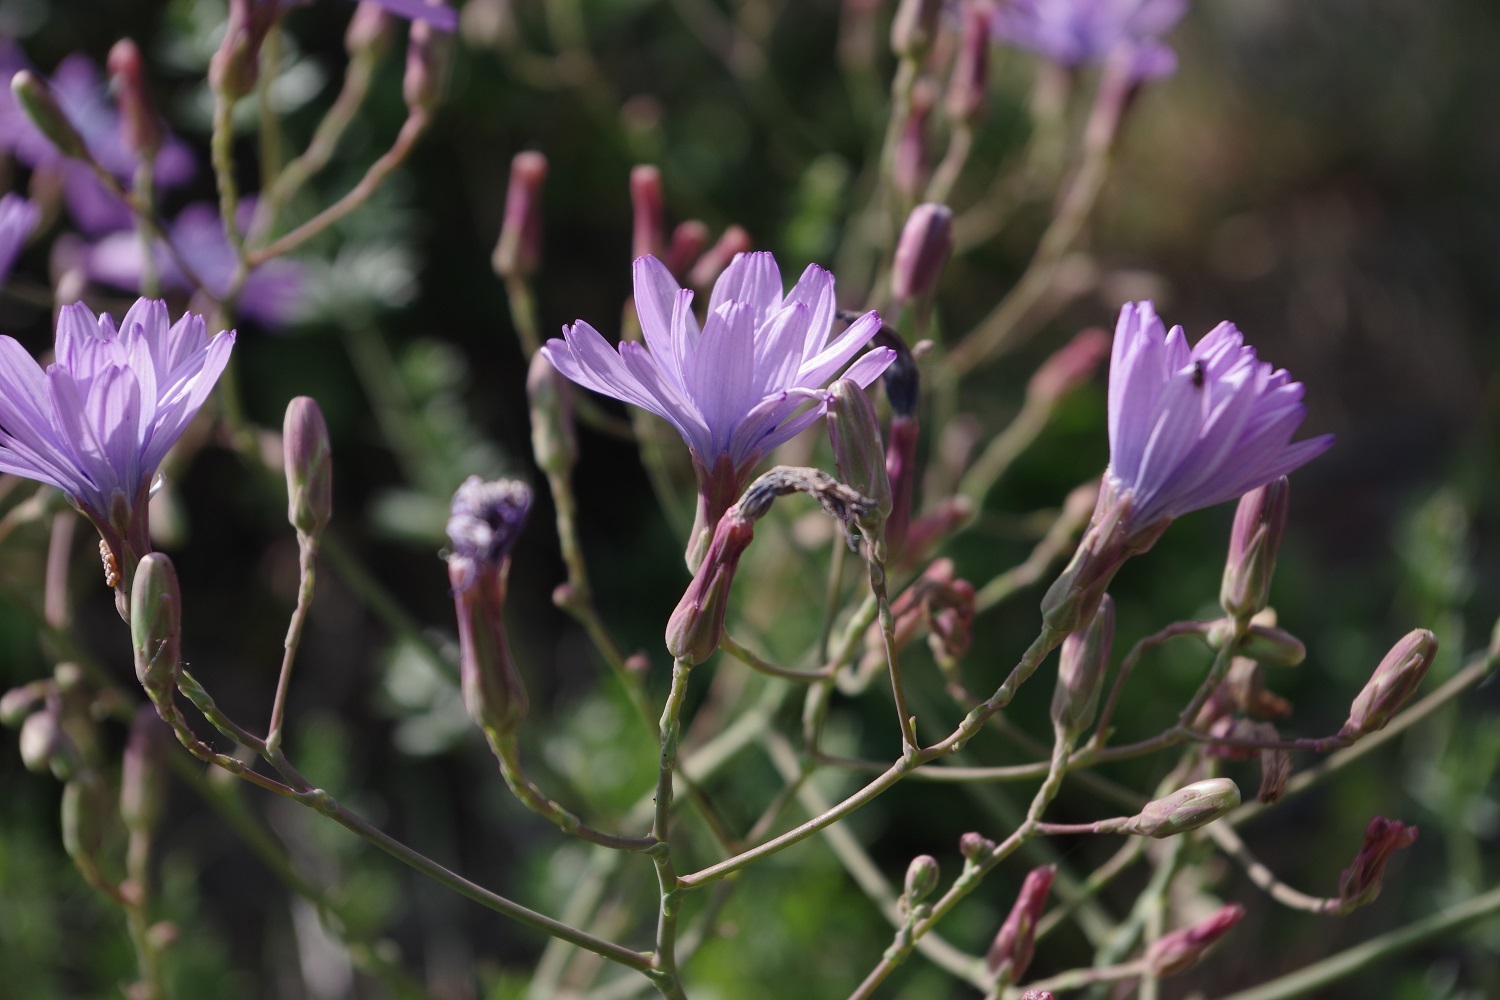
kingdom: Plantae
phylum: Tracheophyta
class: Magnoliopsida
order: Asterales
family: Asteraceae
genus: Lactuca
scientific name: Lactuca perennis
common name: Mountain lettuce
